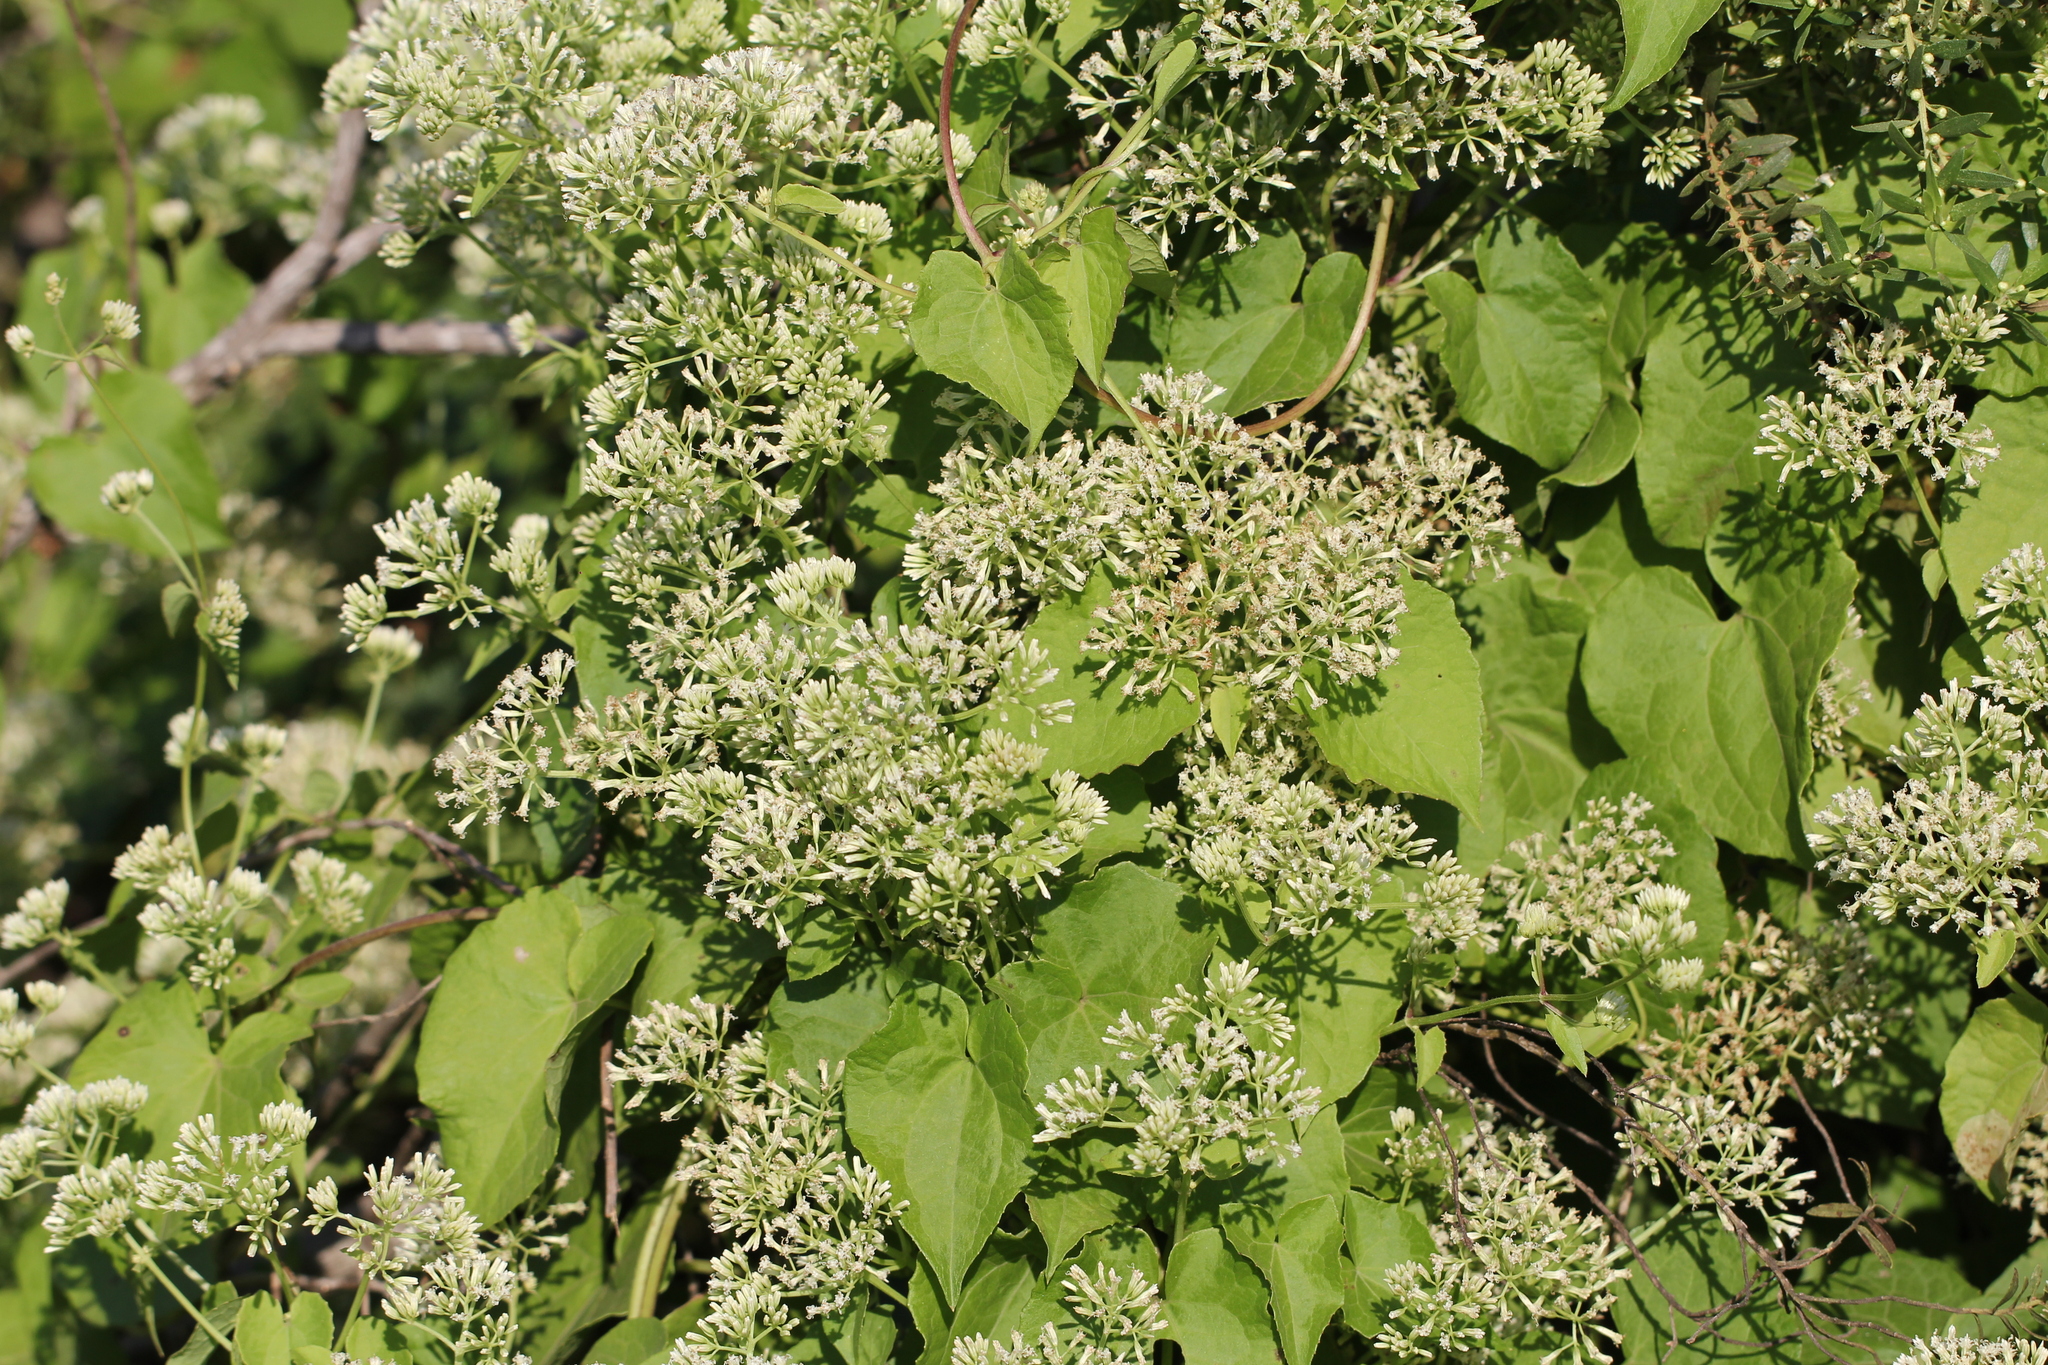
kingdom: Plantae
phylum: Tracheophyta
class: Magnoliopsida
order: Asterales
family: Asteraceae
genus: Mikania
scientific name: Mikania cordifolia
